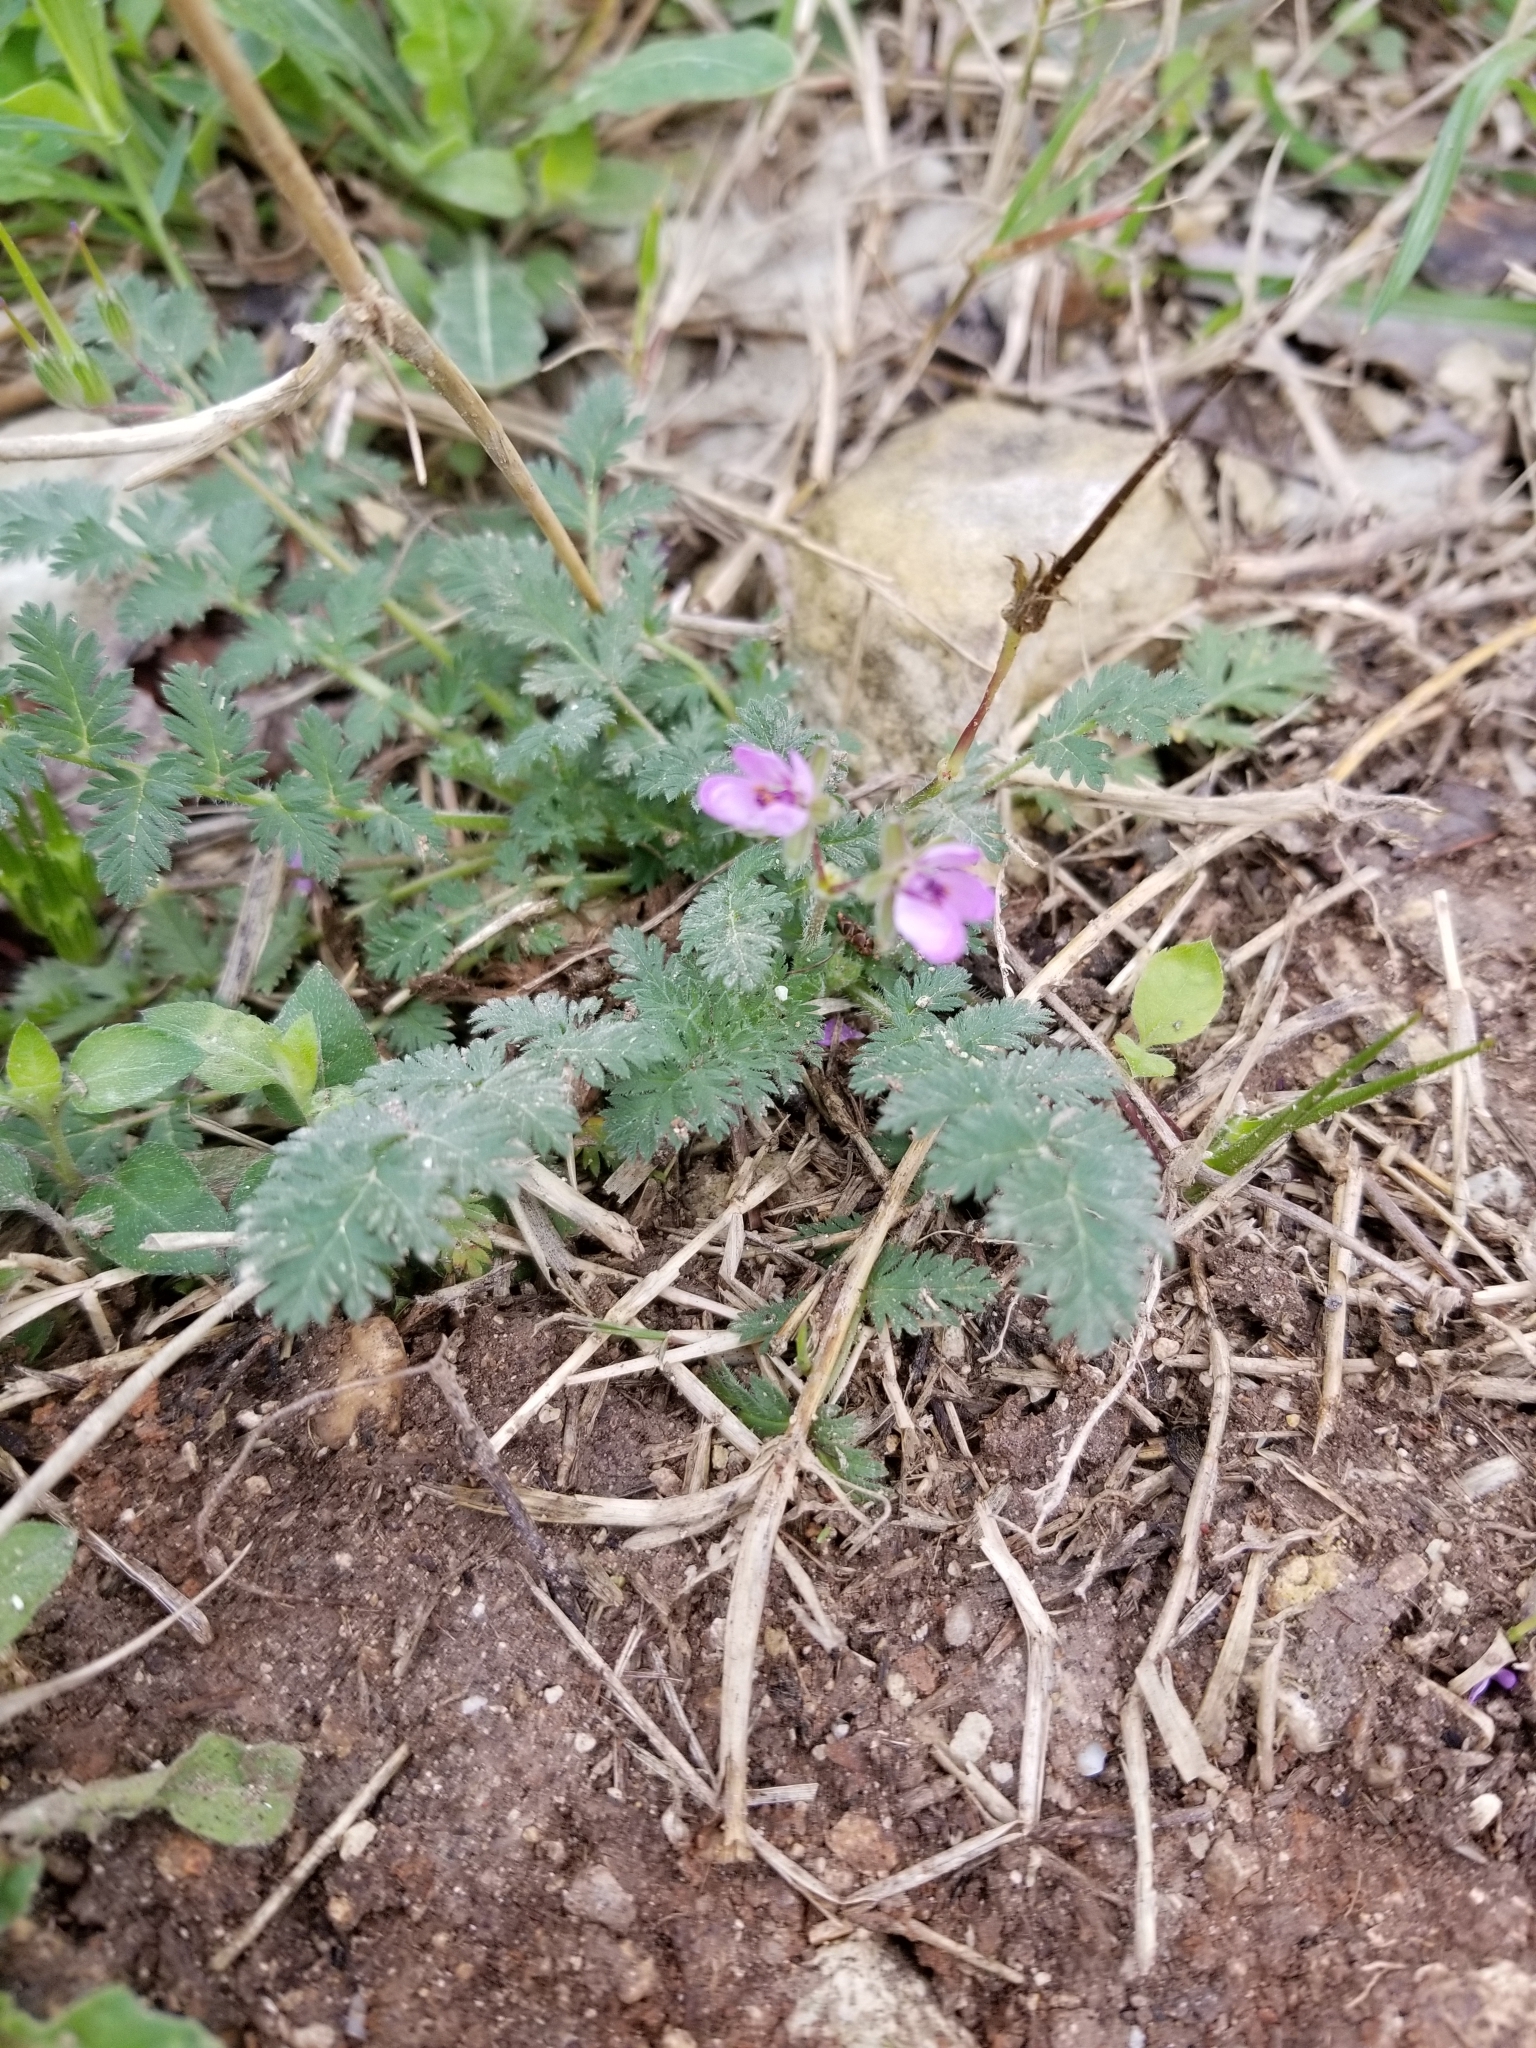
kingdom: Plantae
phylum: Tracheophyta
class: Magnoliopsida
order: Geraniales
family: Geraniaceae
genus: Erodium
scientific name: Erodium cicutarium
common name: Common stork's-bill
